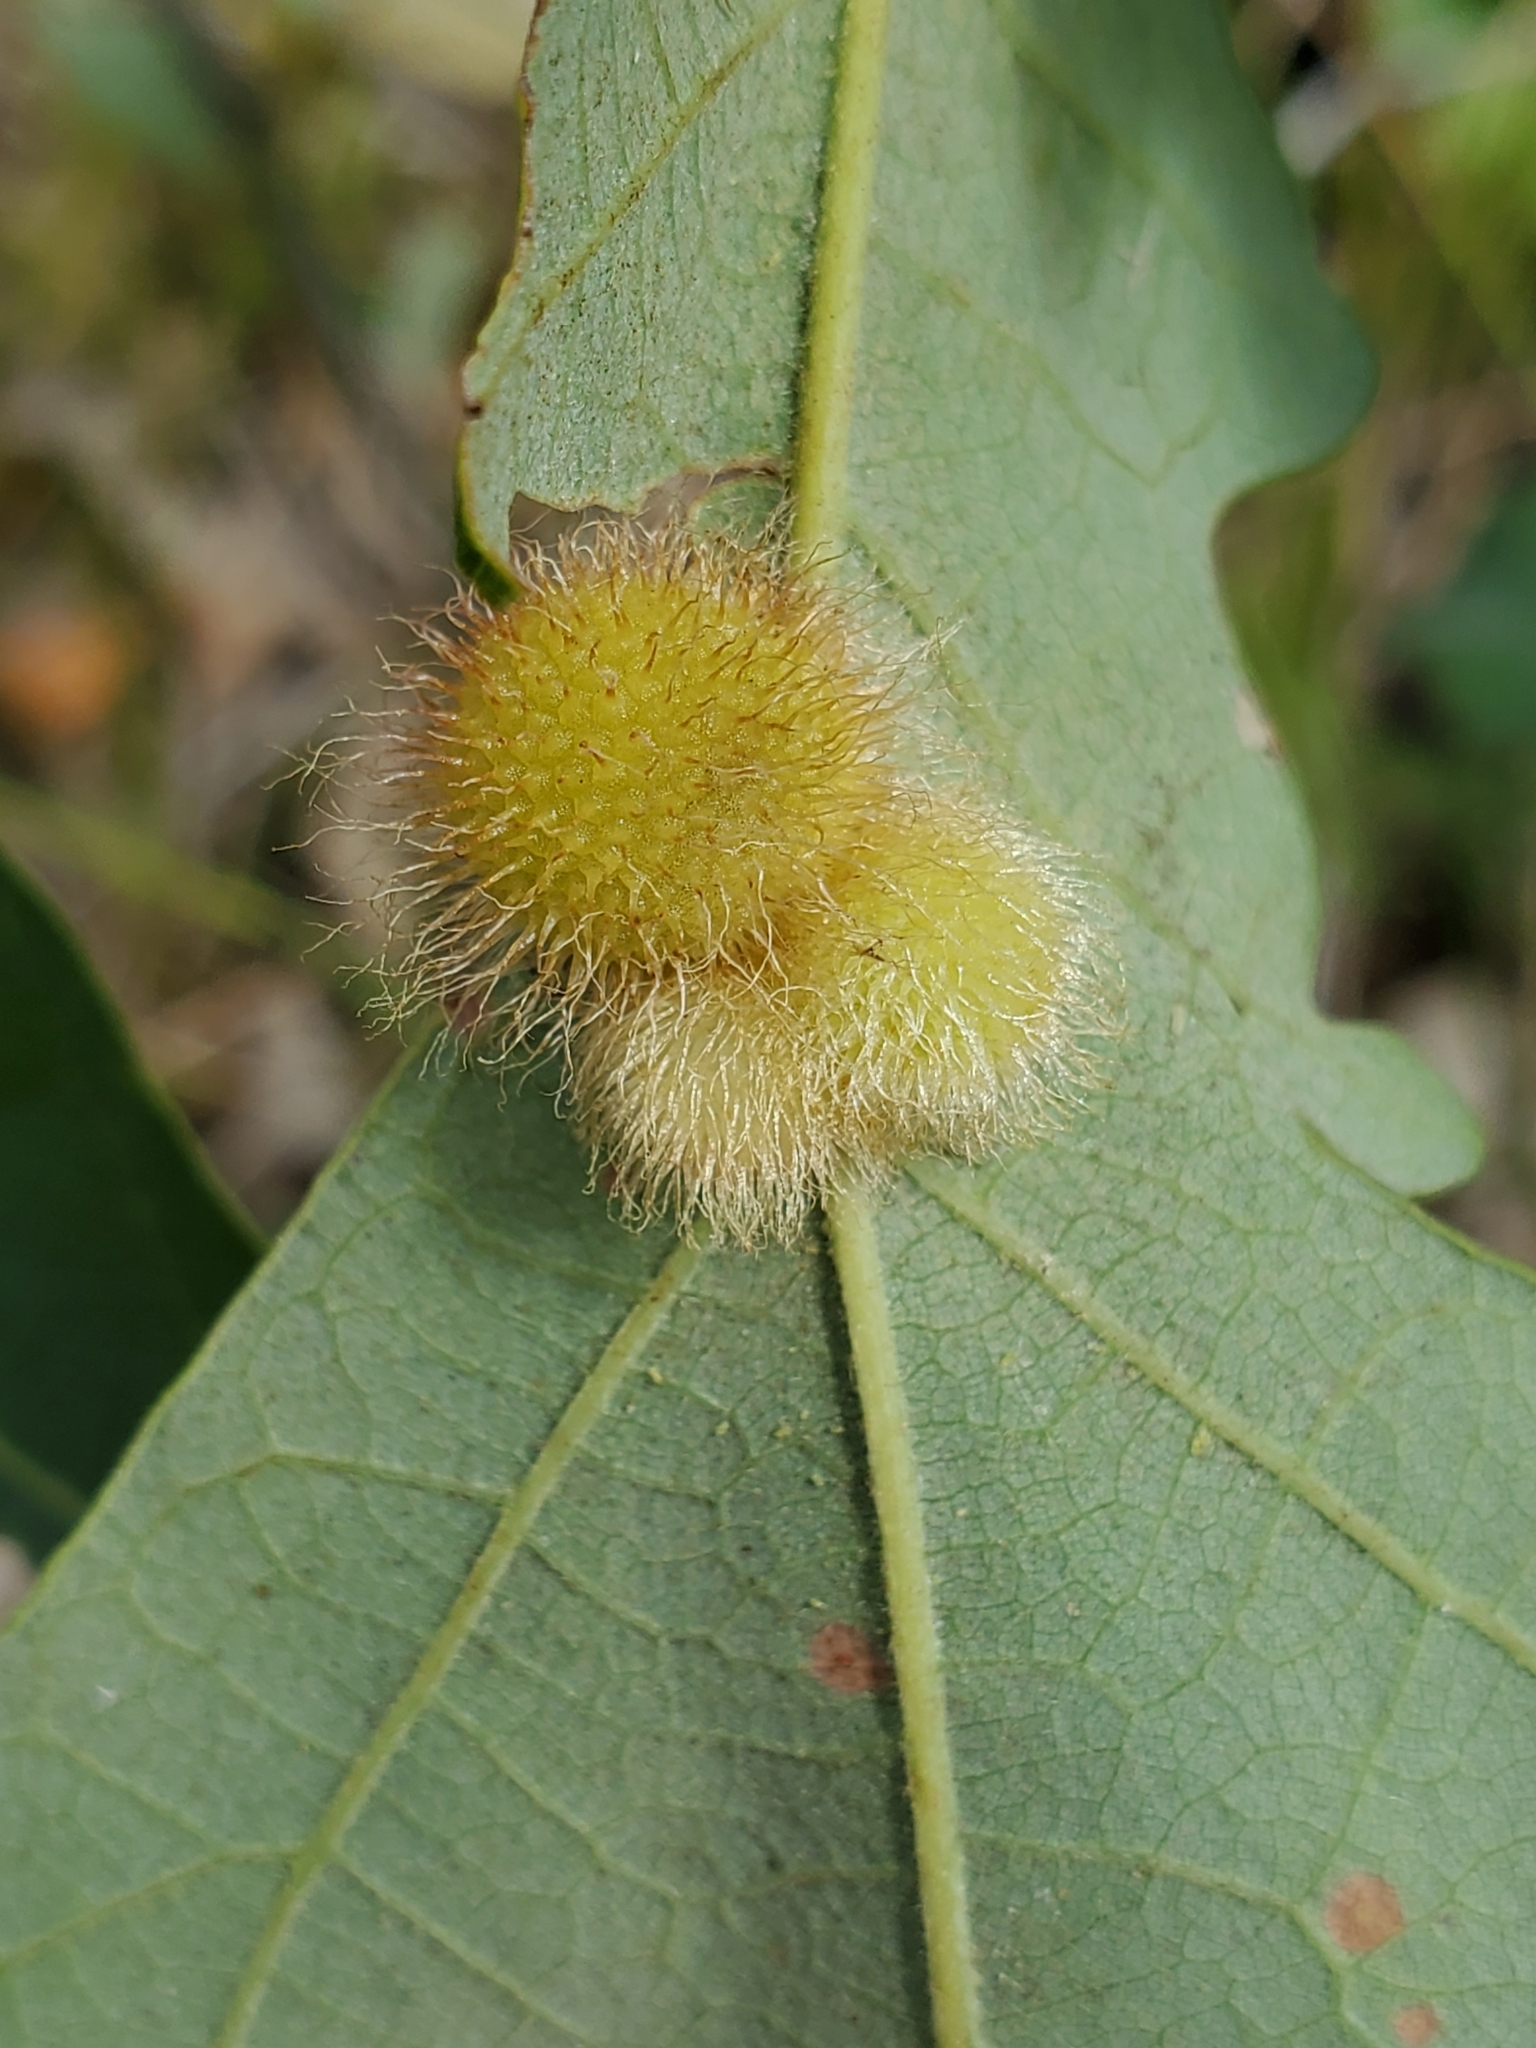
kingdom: Animalia
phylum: Arthropoda
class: Insecta
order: Hymenoptera
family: Cynipidae
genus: Acraspis
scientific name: Acraspis villosa
